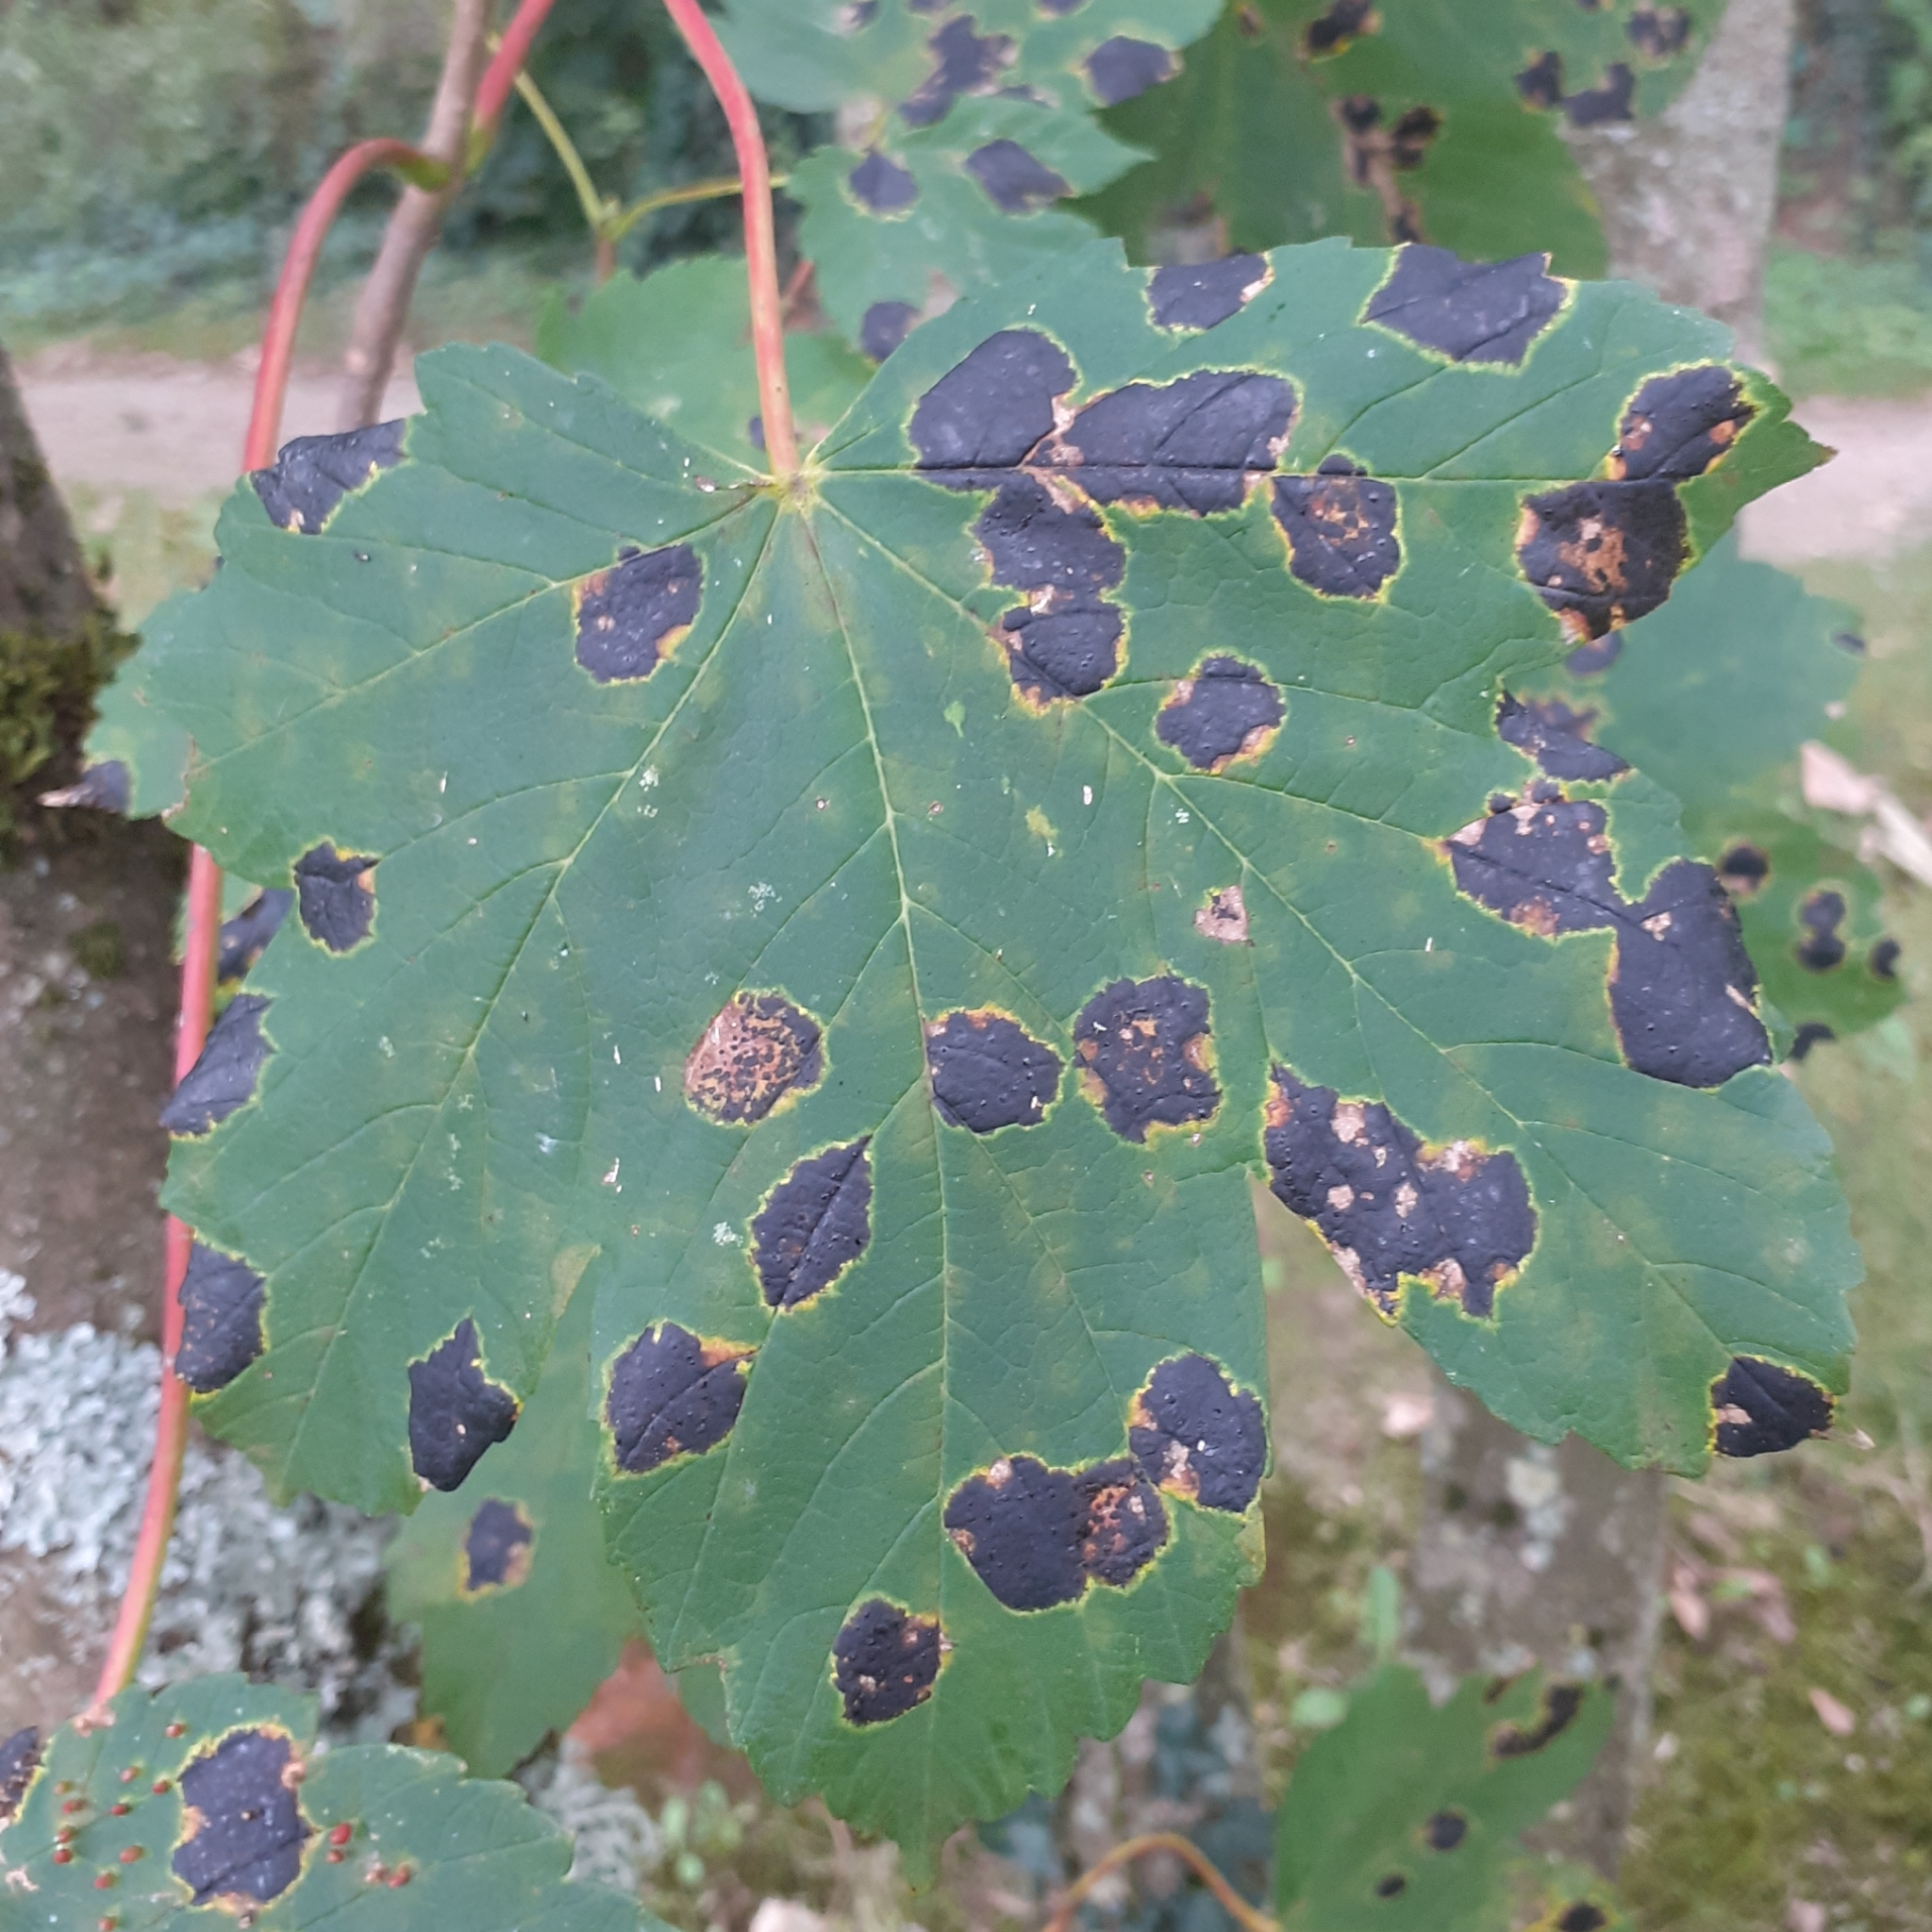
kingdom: Fungi
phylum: Ascomycota
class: Leotiomycetes
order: Rhytismatales
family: Rhytismataceae
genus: Rhytisma
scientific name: Rhytisma acerinum
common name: European tar spot
